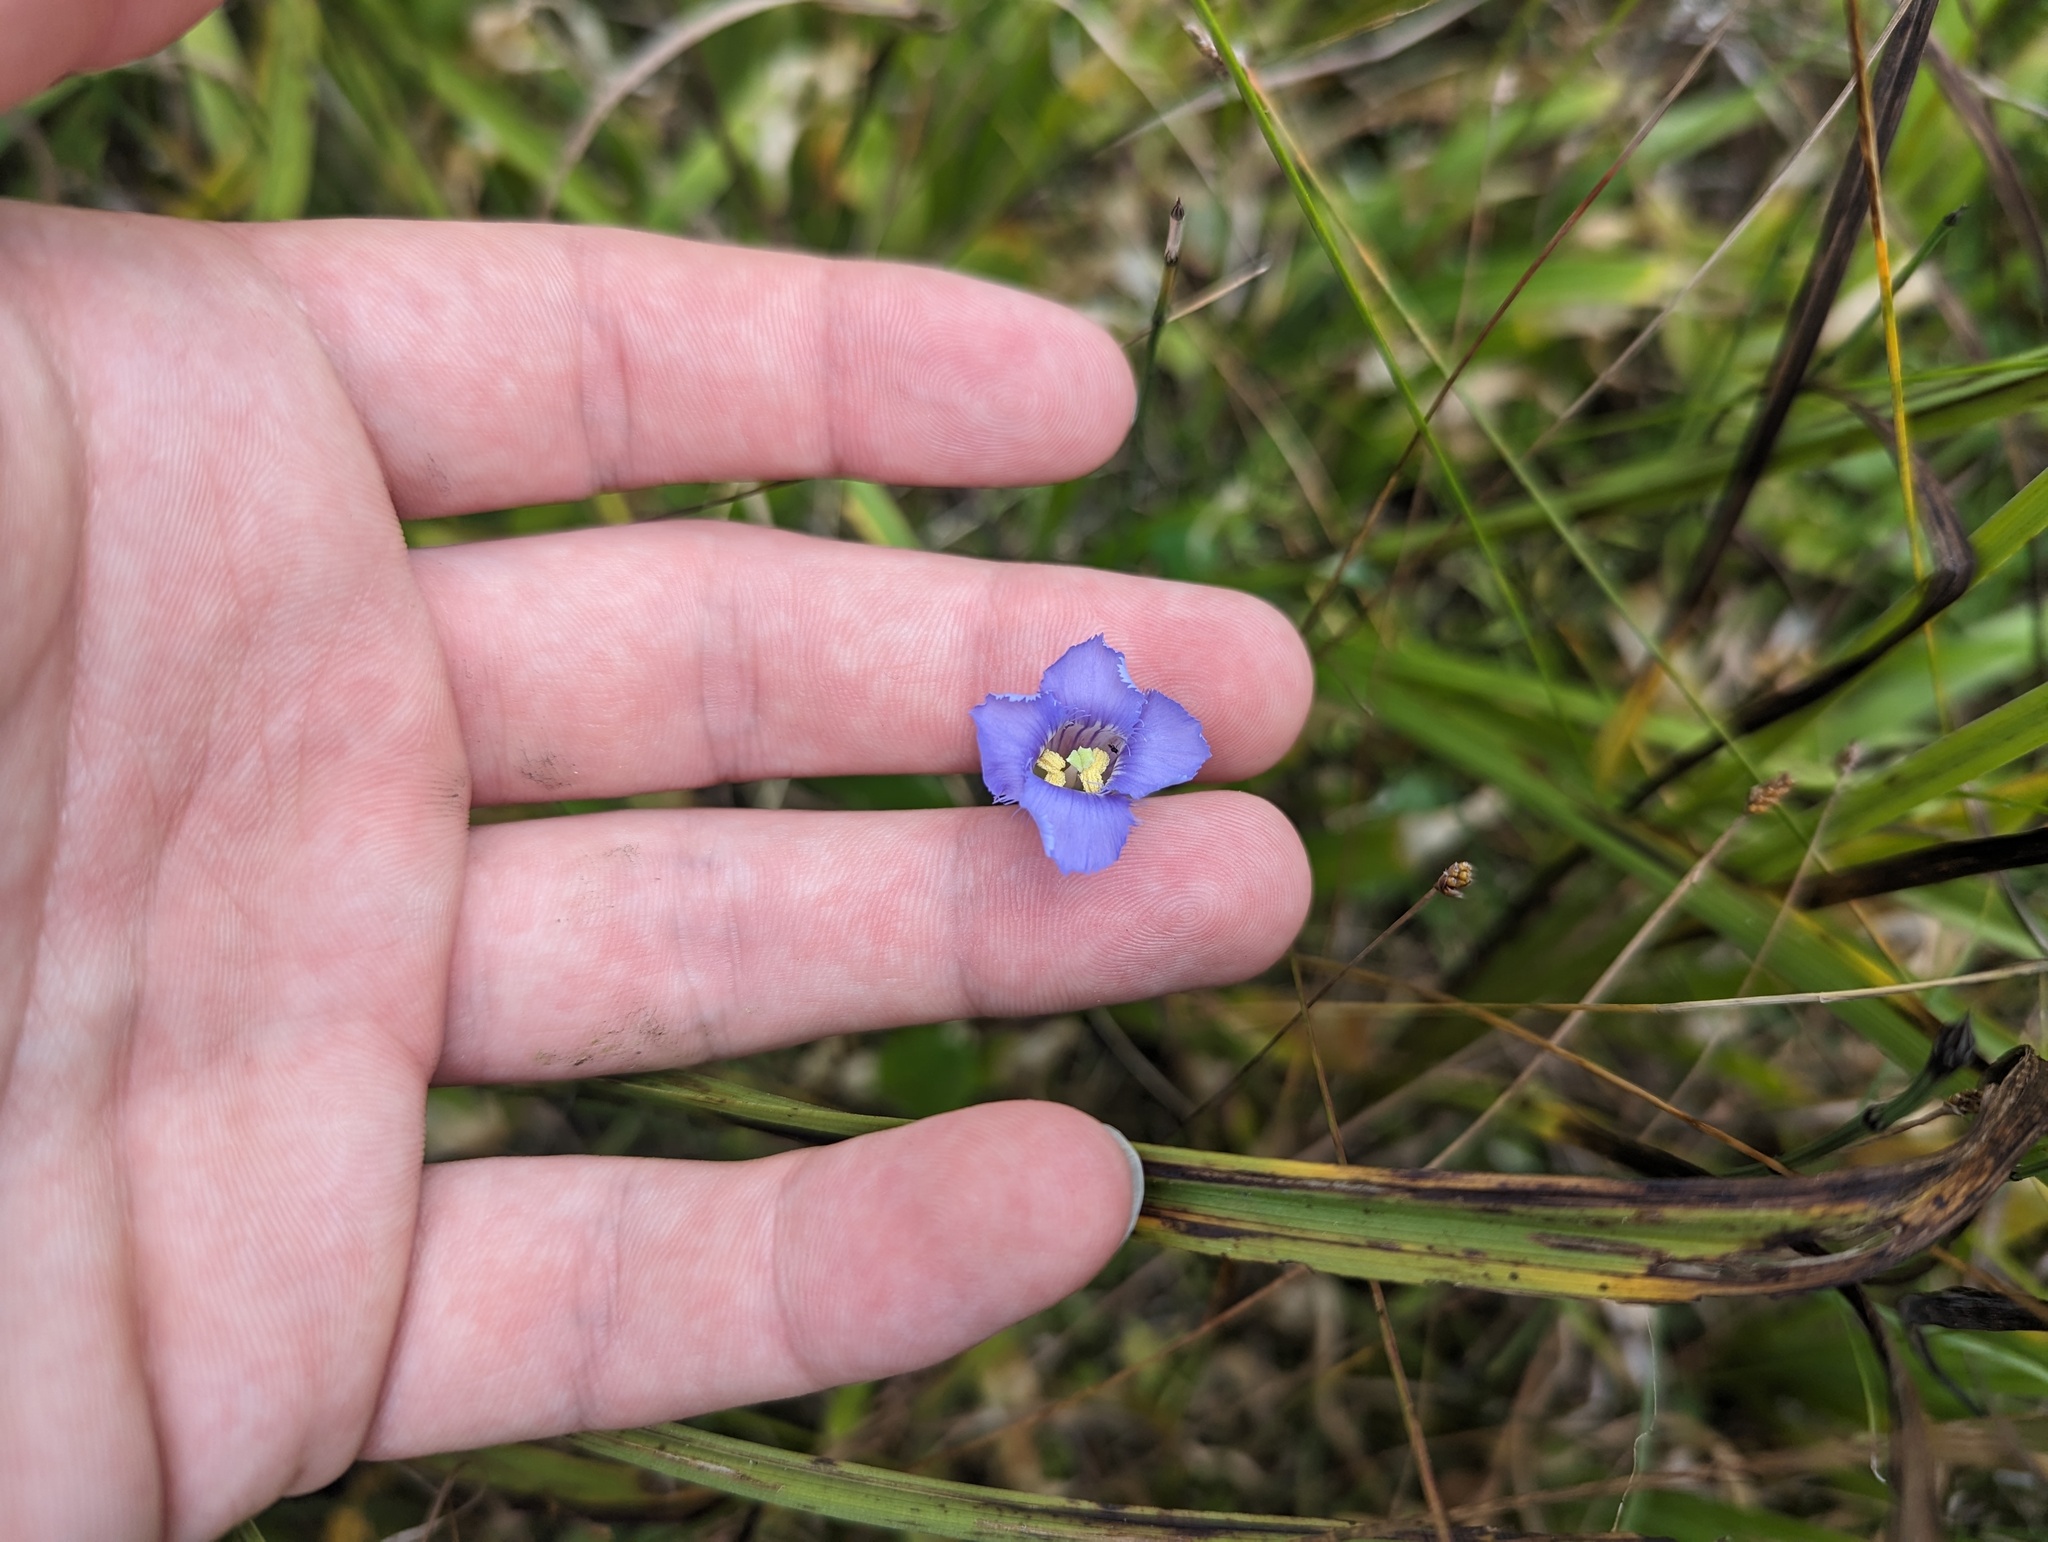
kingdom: Plantae
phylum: Tracheophyta
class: Magnoliopsida
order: Gentianales
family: Gentianaceae
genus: Gentianopsis
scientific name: Gentianopsis virgata
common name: Lesser fringed-gentian
